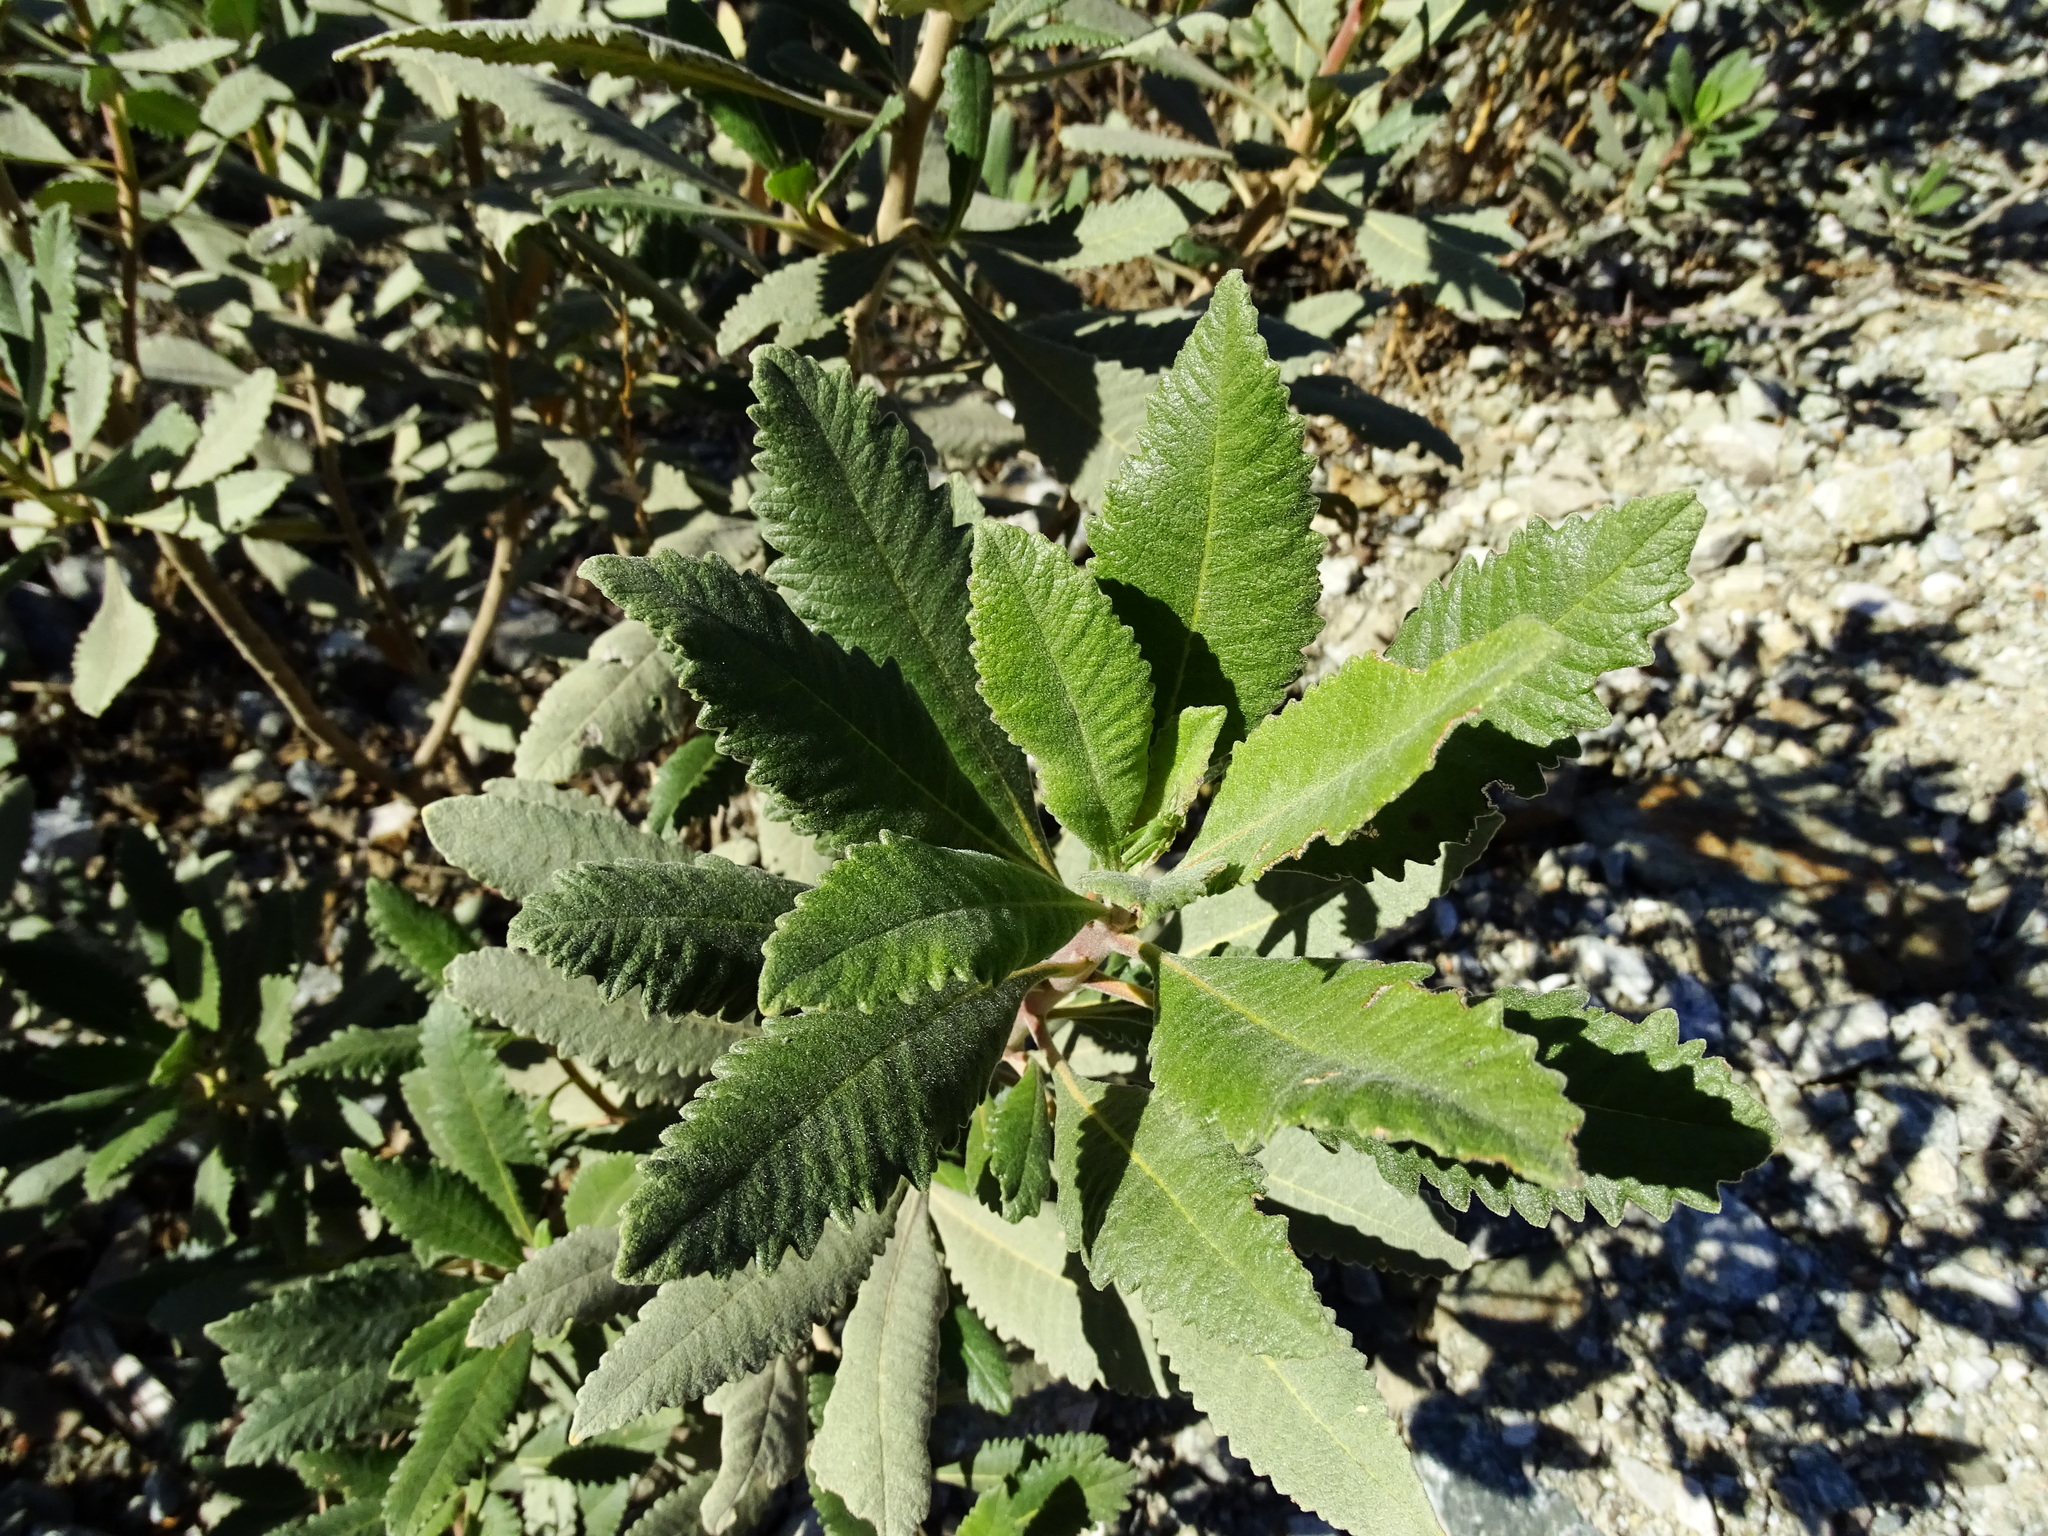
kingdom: Plantae
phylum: Tracheophyta
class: Magnoliopsida
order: Boraginales
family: Namaceae
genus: Eriodictyon
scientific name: Eriodictyon crassifolium
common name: Thick-leaf yerba-santa
